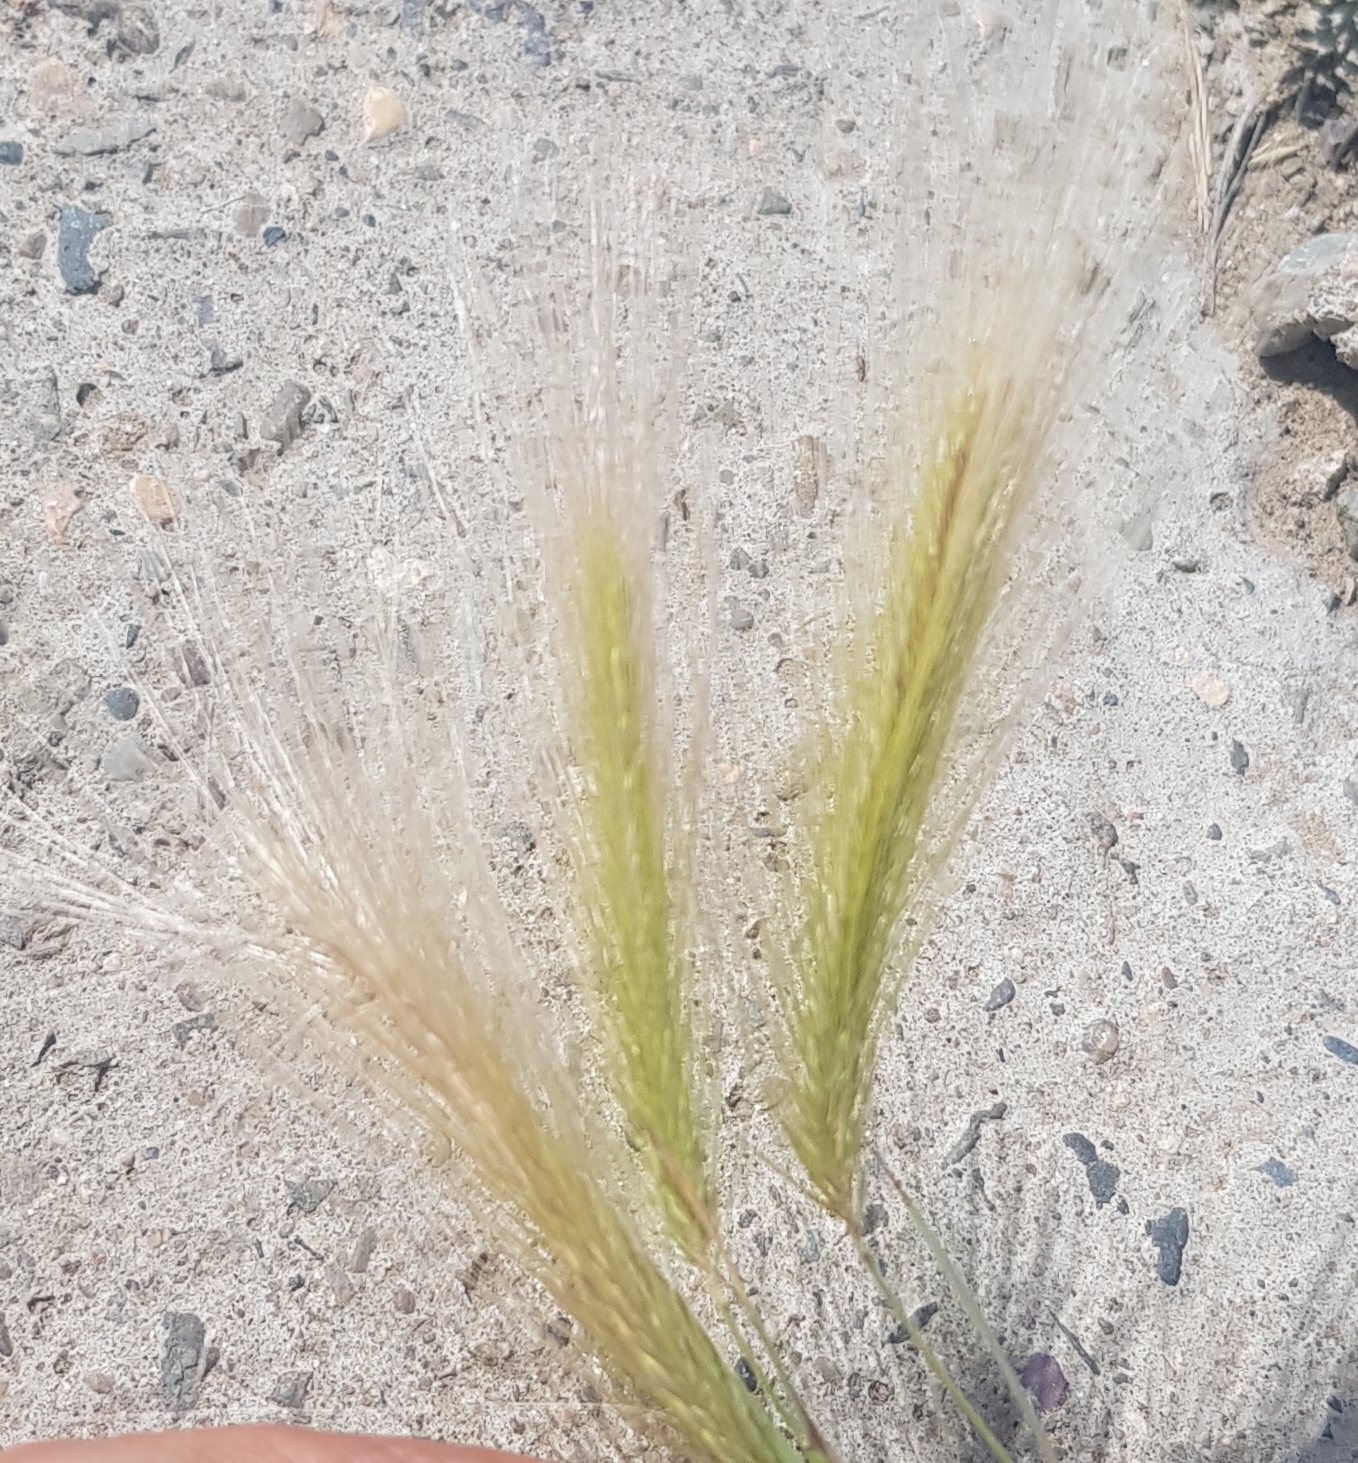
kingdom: Plantae
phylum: Tracheophyta
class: Liliopsida
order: Poales
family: Poaceae
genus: Hordeum
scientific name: Hordeum jubatum
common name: Foxtail barley
